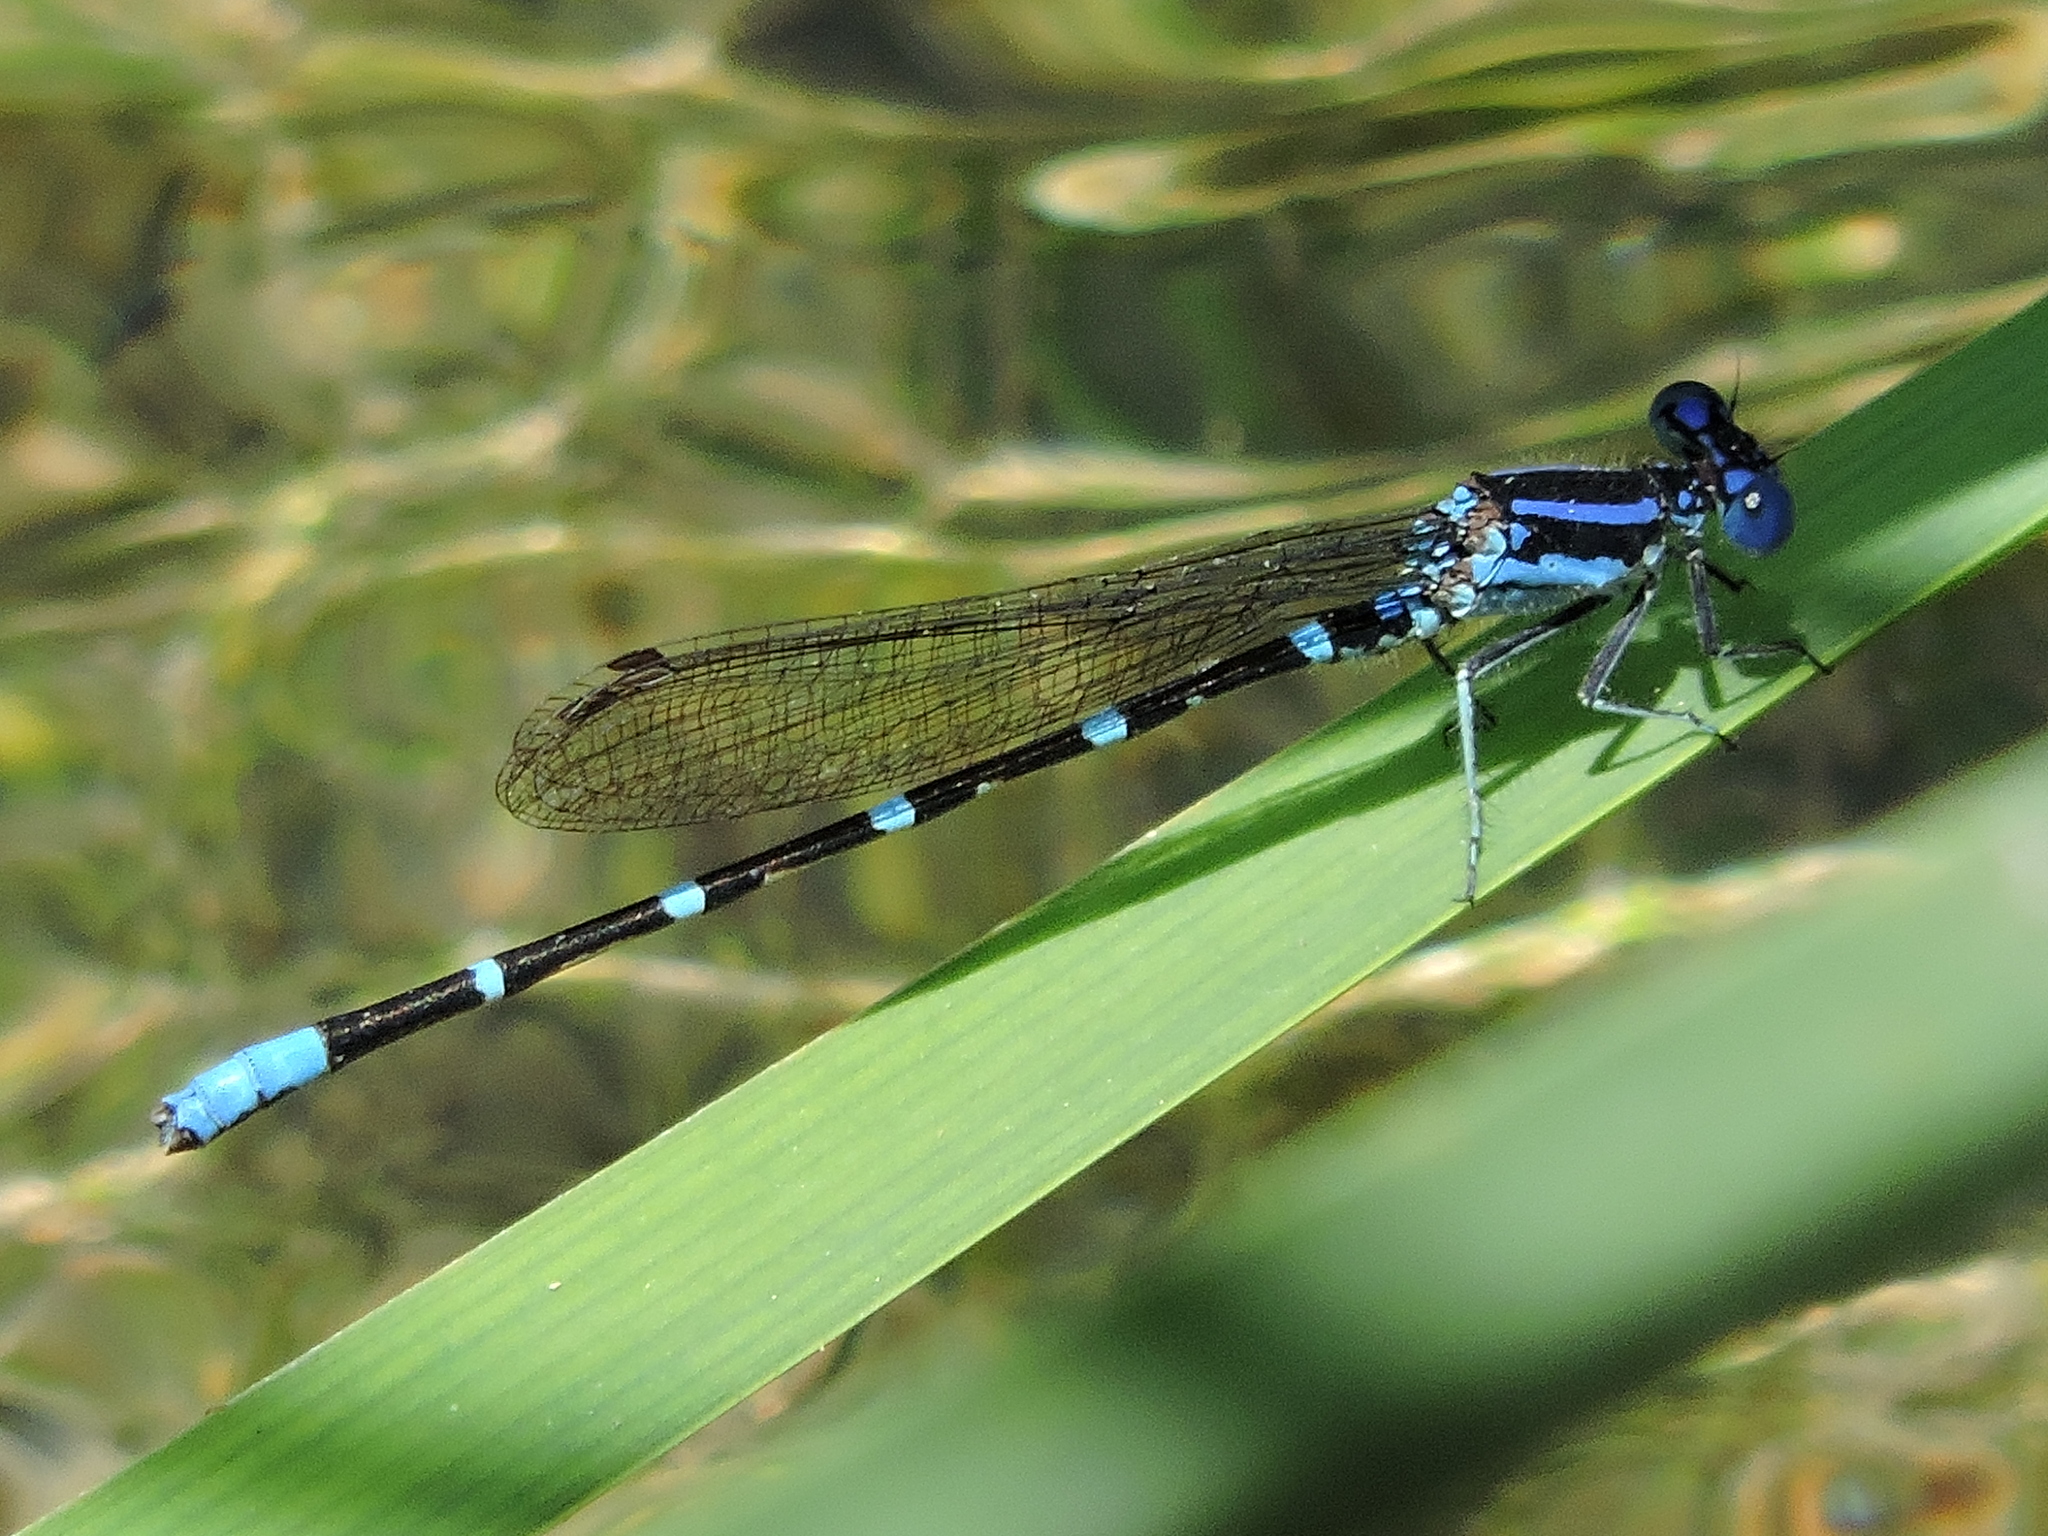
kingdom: Animalia
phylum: Arthropoda
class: Insecta
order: Odonata
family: Coenagrionidae
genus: Argia
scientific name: Argia sedula
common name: Blue-ringed dancer
